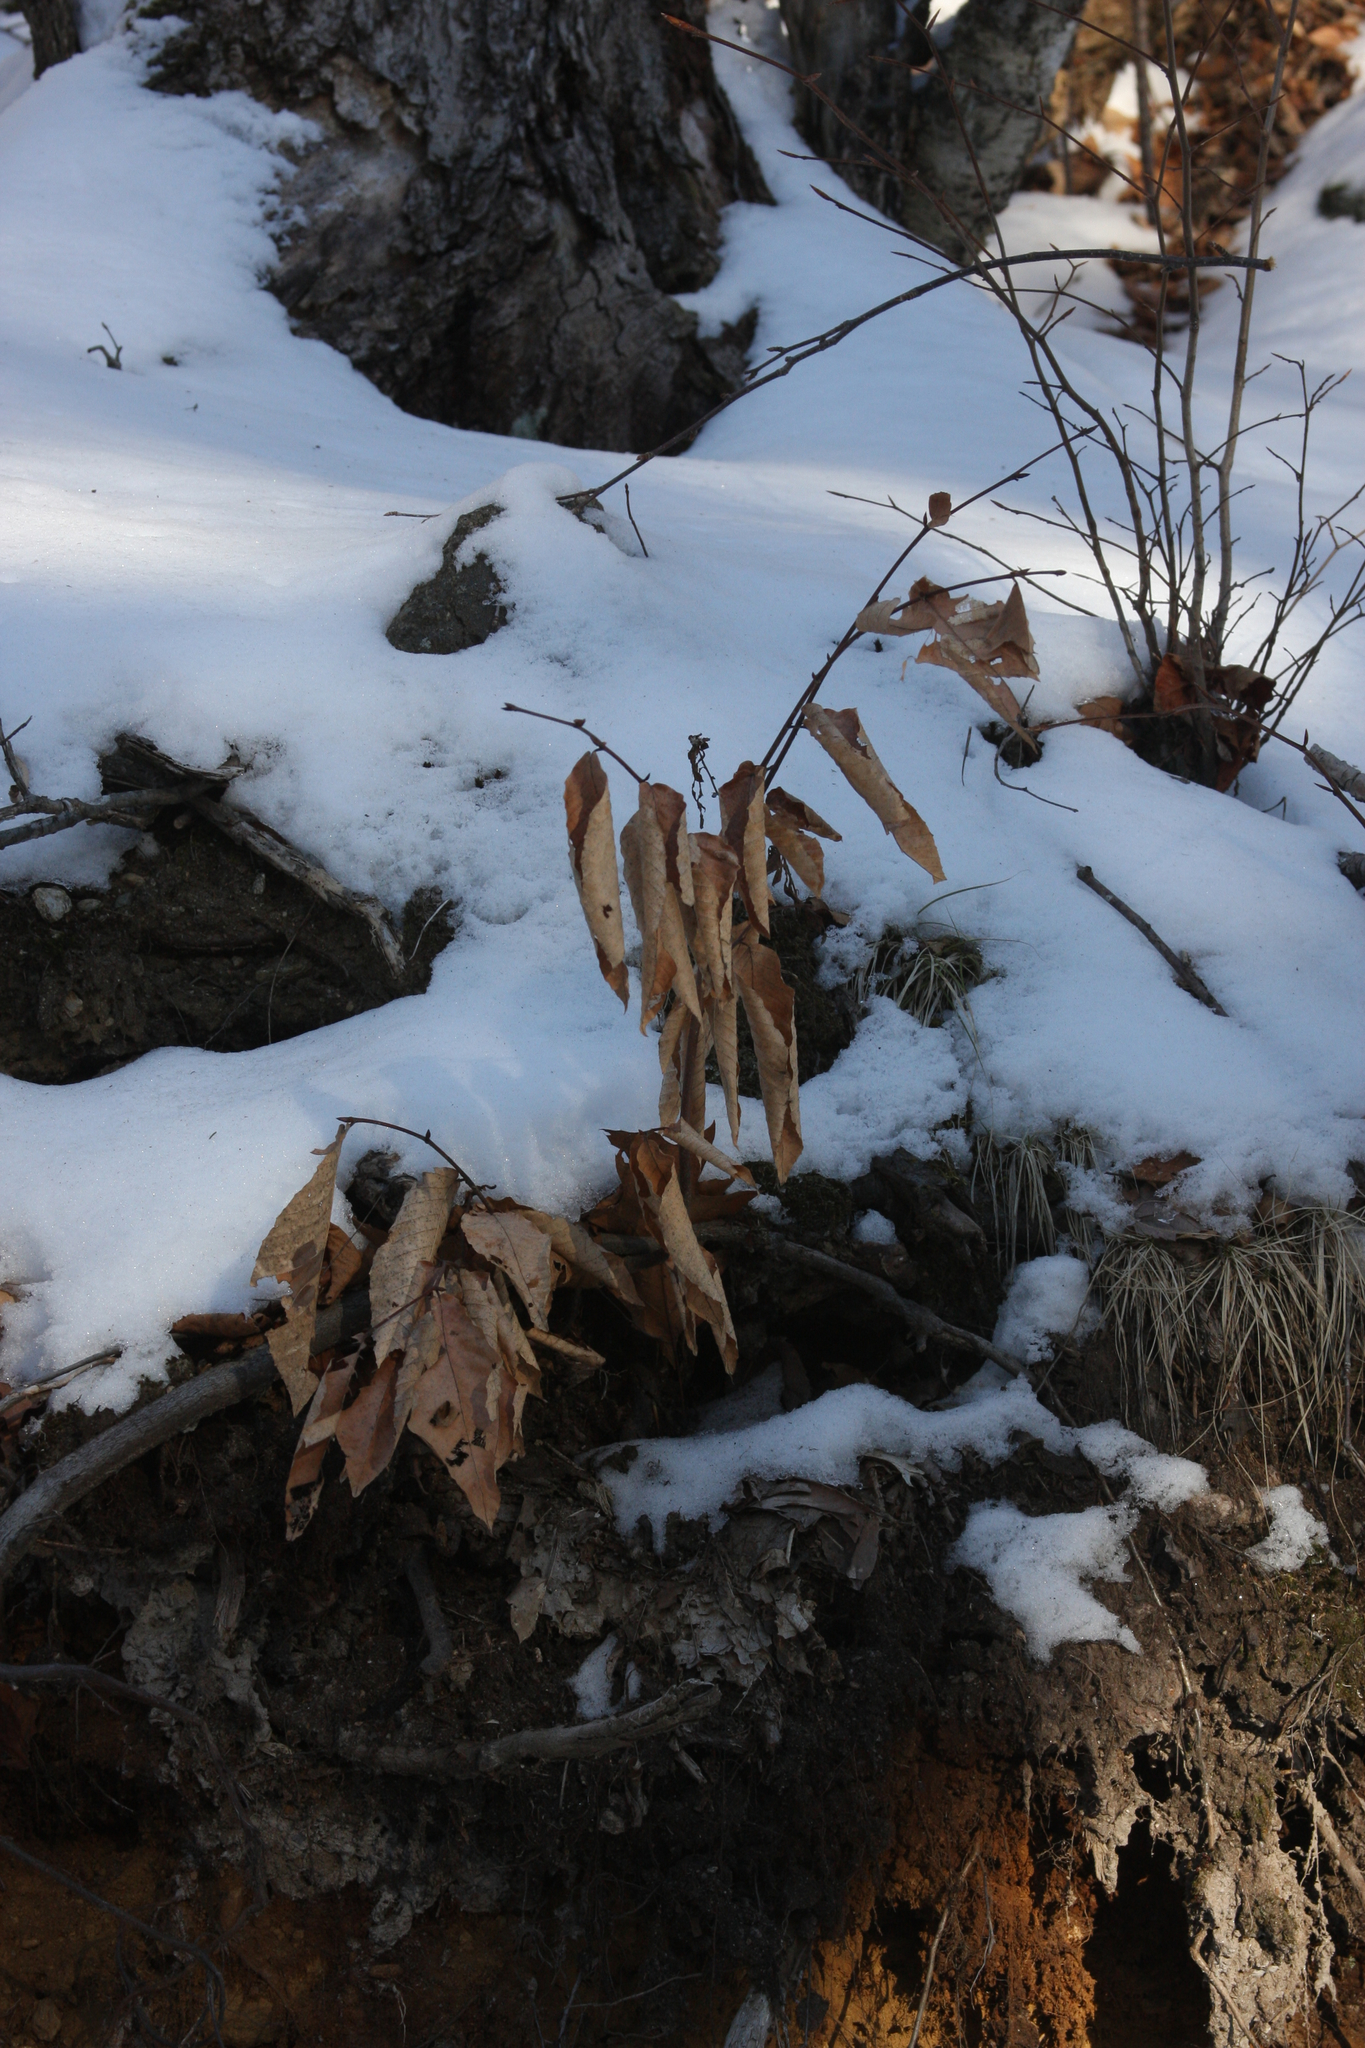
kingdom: Plantae
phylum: Tracheophyta
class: Magnoliopsida
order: Fagales
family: Fagaceae
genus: Fagus
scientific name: Fagus grandifolia
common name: American beech
